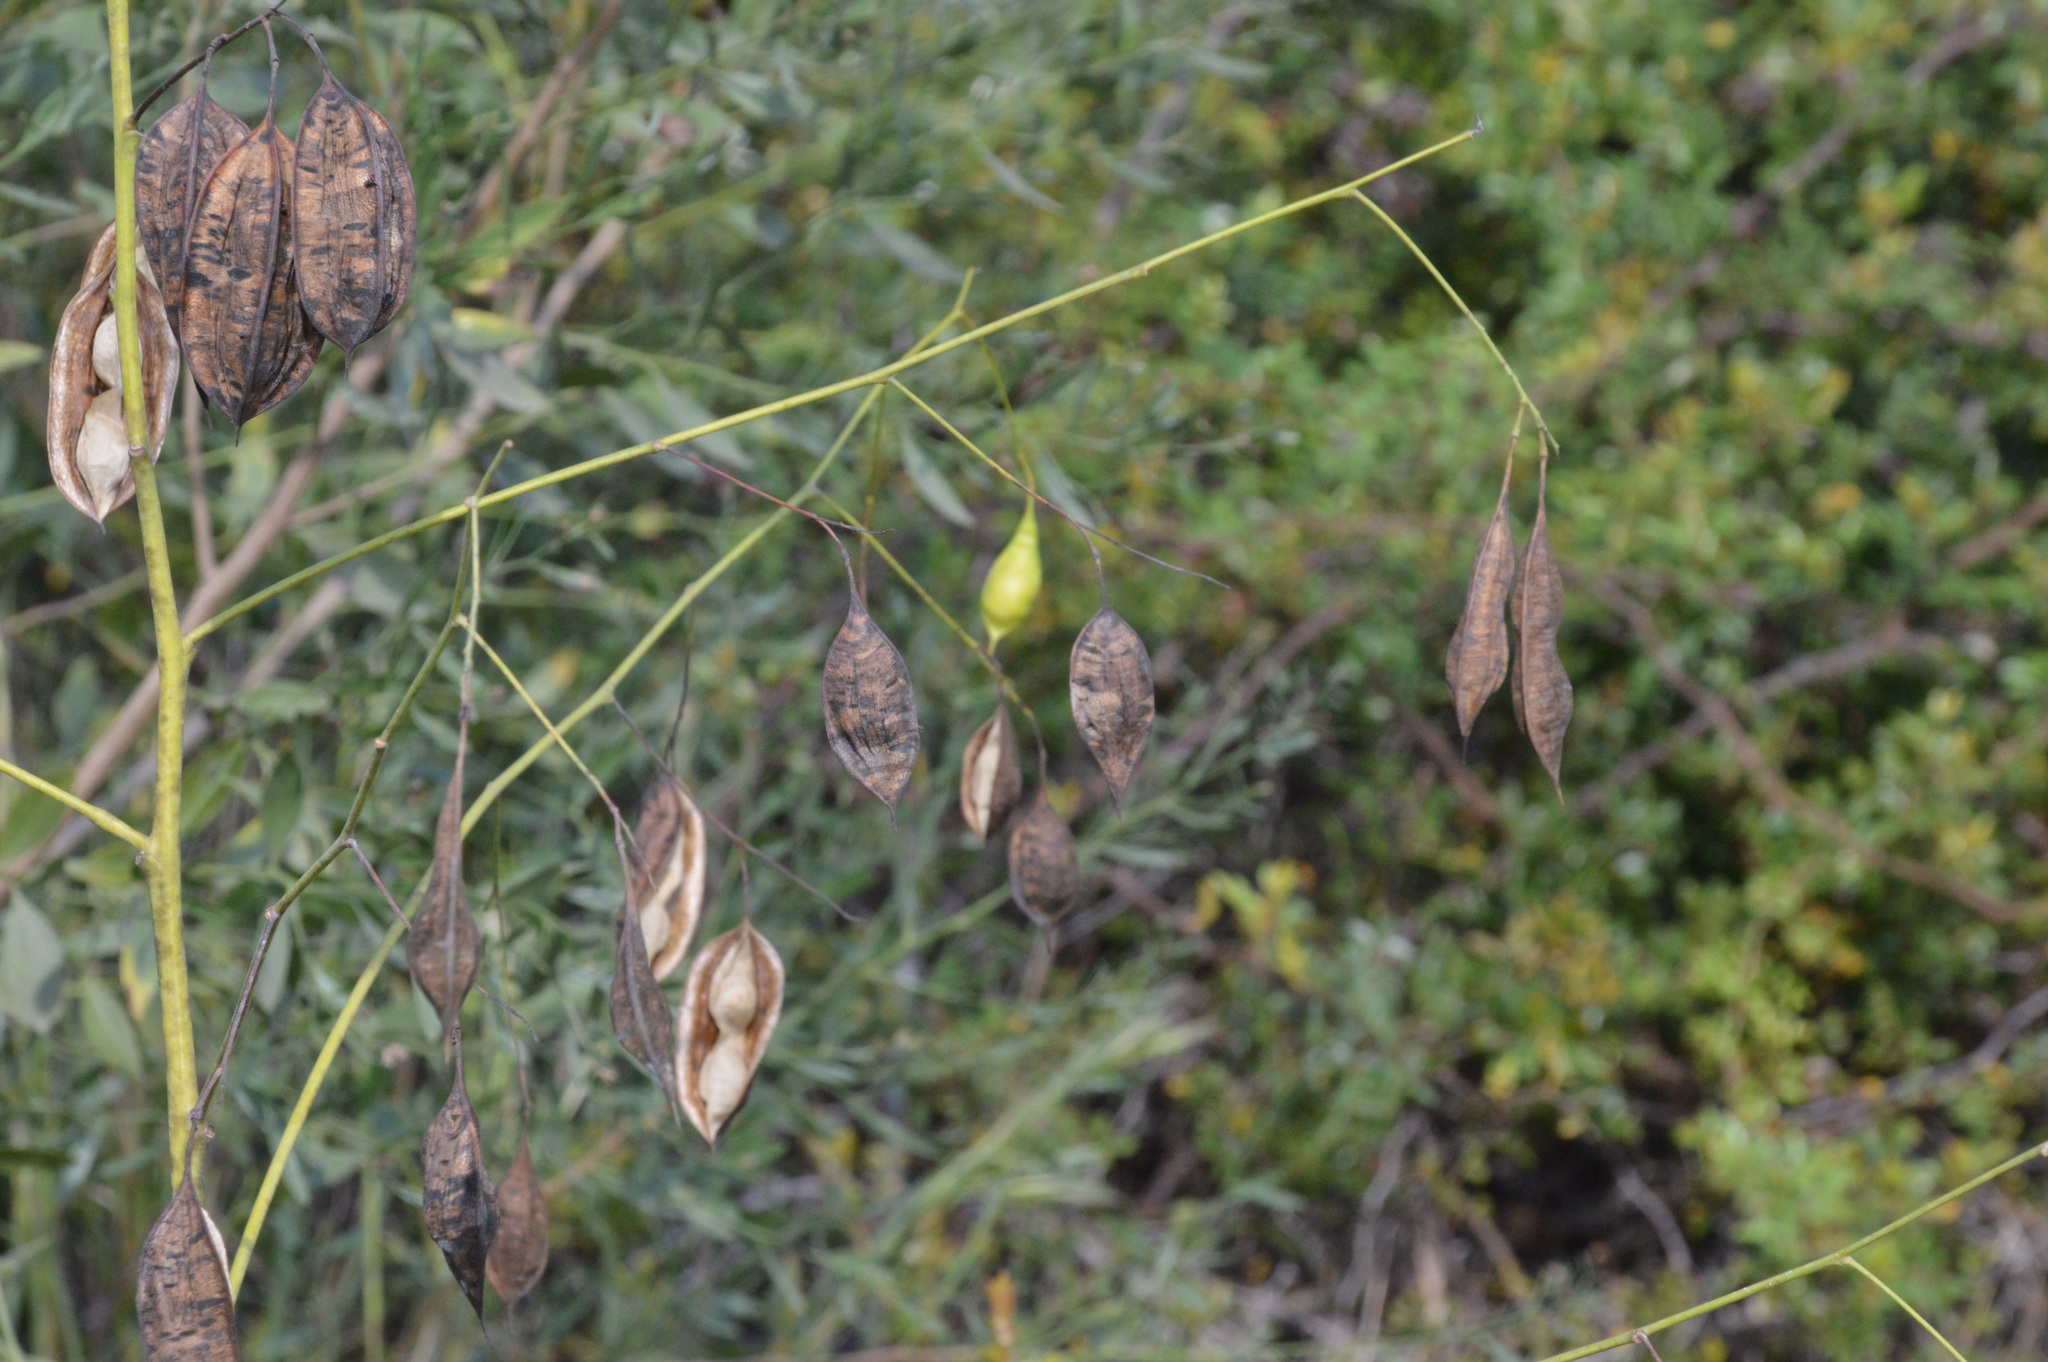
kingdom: Plantae
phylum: Tracheophyta
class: Magnoliopsida
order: Fabales
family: Fabaceae
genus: Sesbania
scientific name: Sesbania vesicaria
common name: Bagpod
